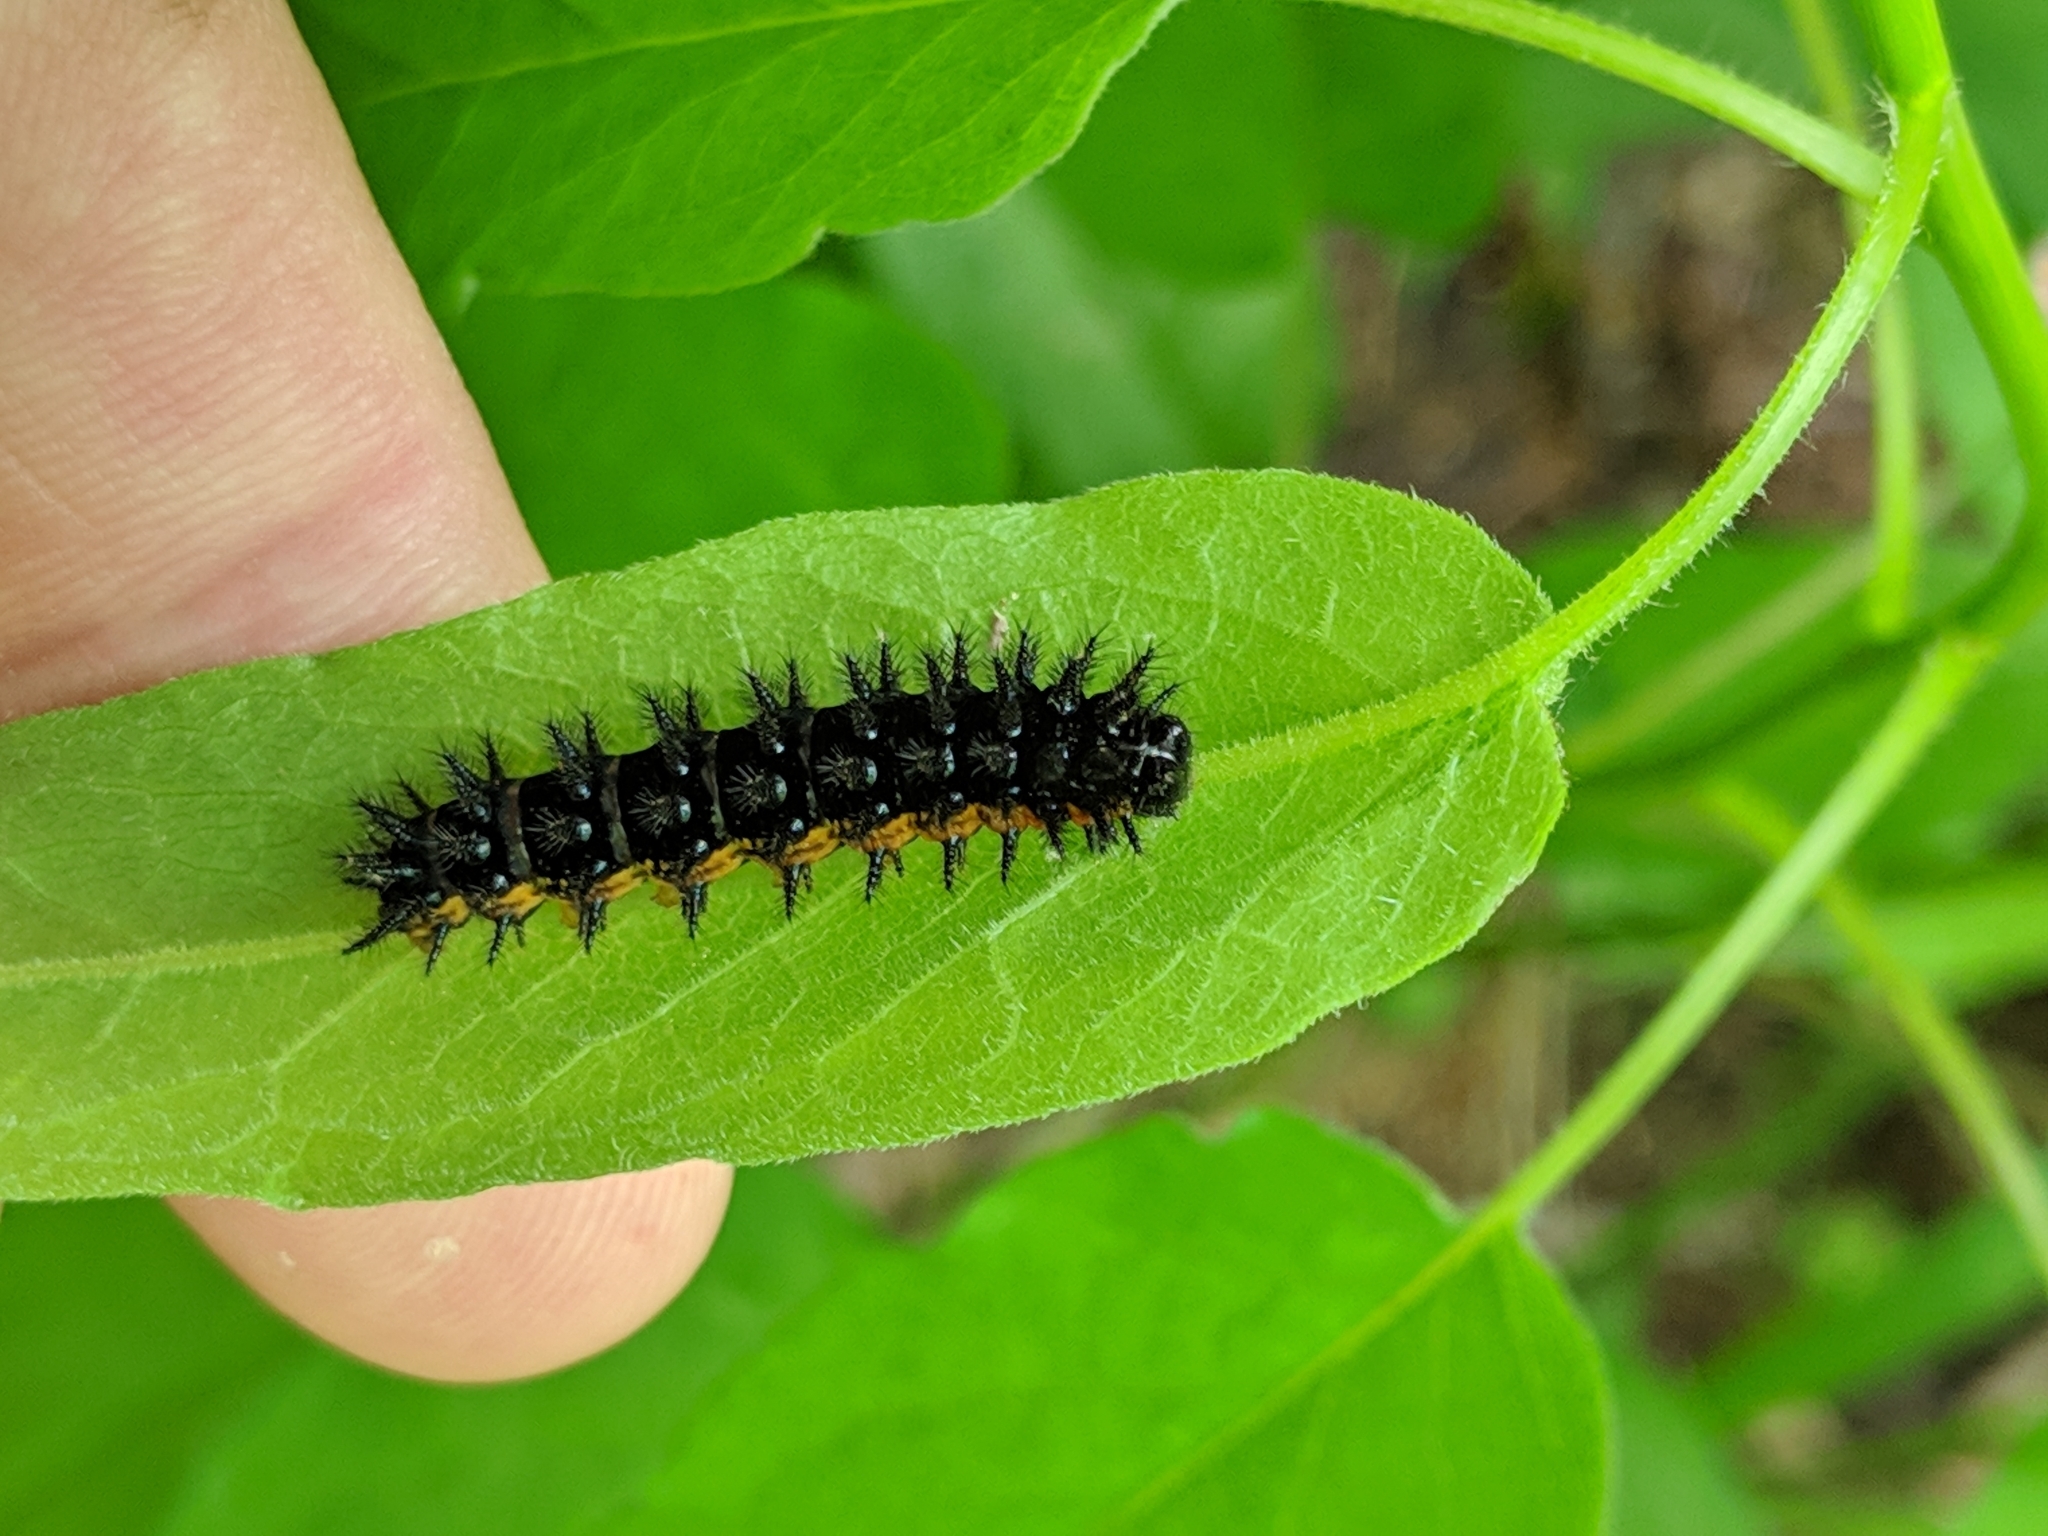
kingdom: Animalia
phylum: Arthropoda
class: Insecta
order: Lepidoptera
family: Nymphalidae
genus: Chlosyne
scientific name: Chlosyne nycteis
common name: Silvery checkerspot
